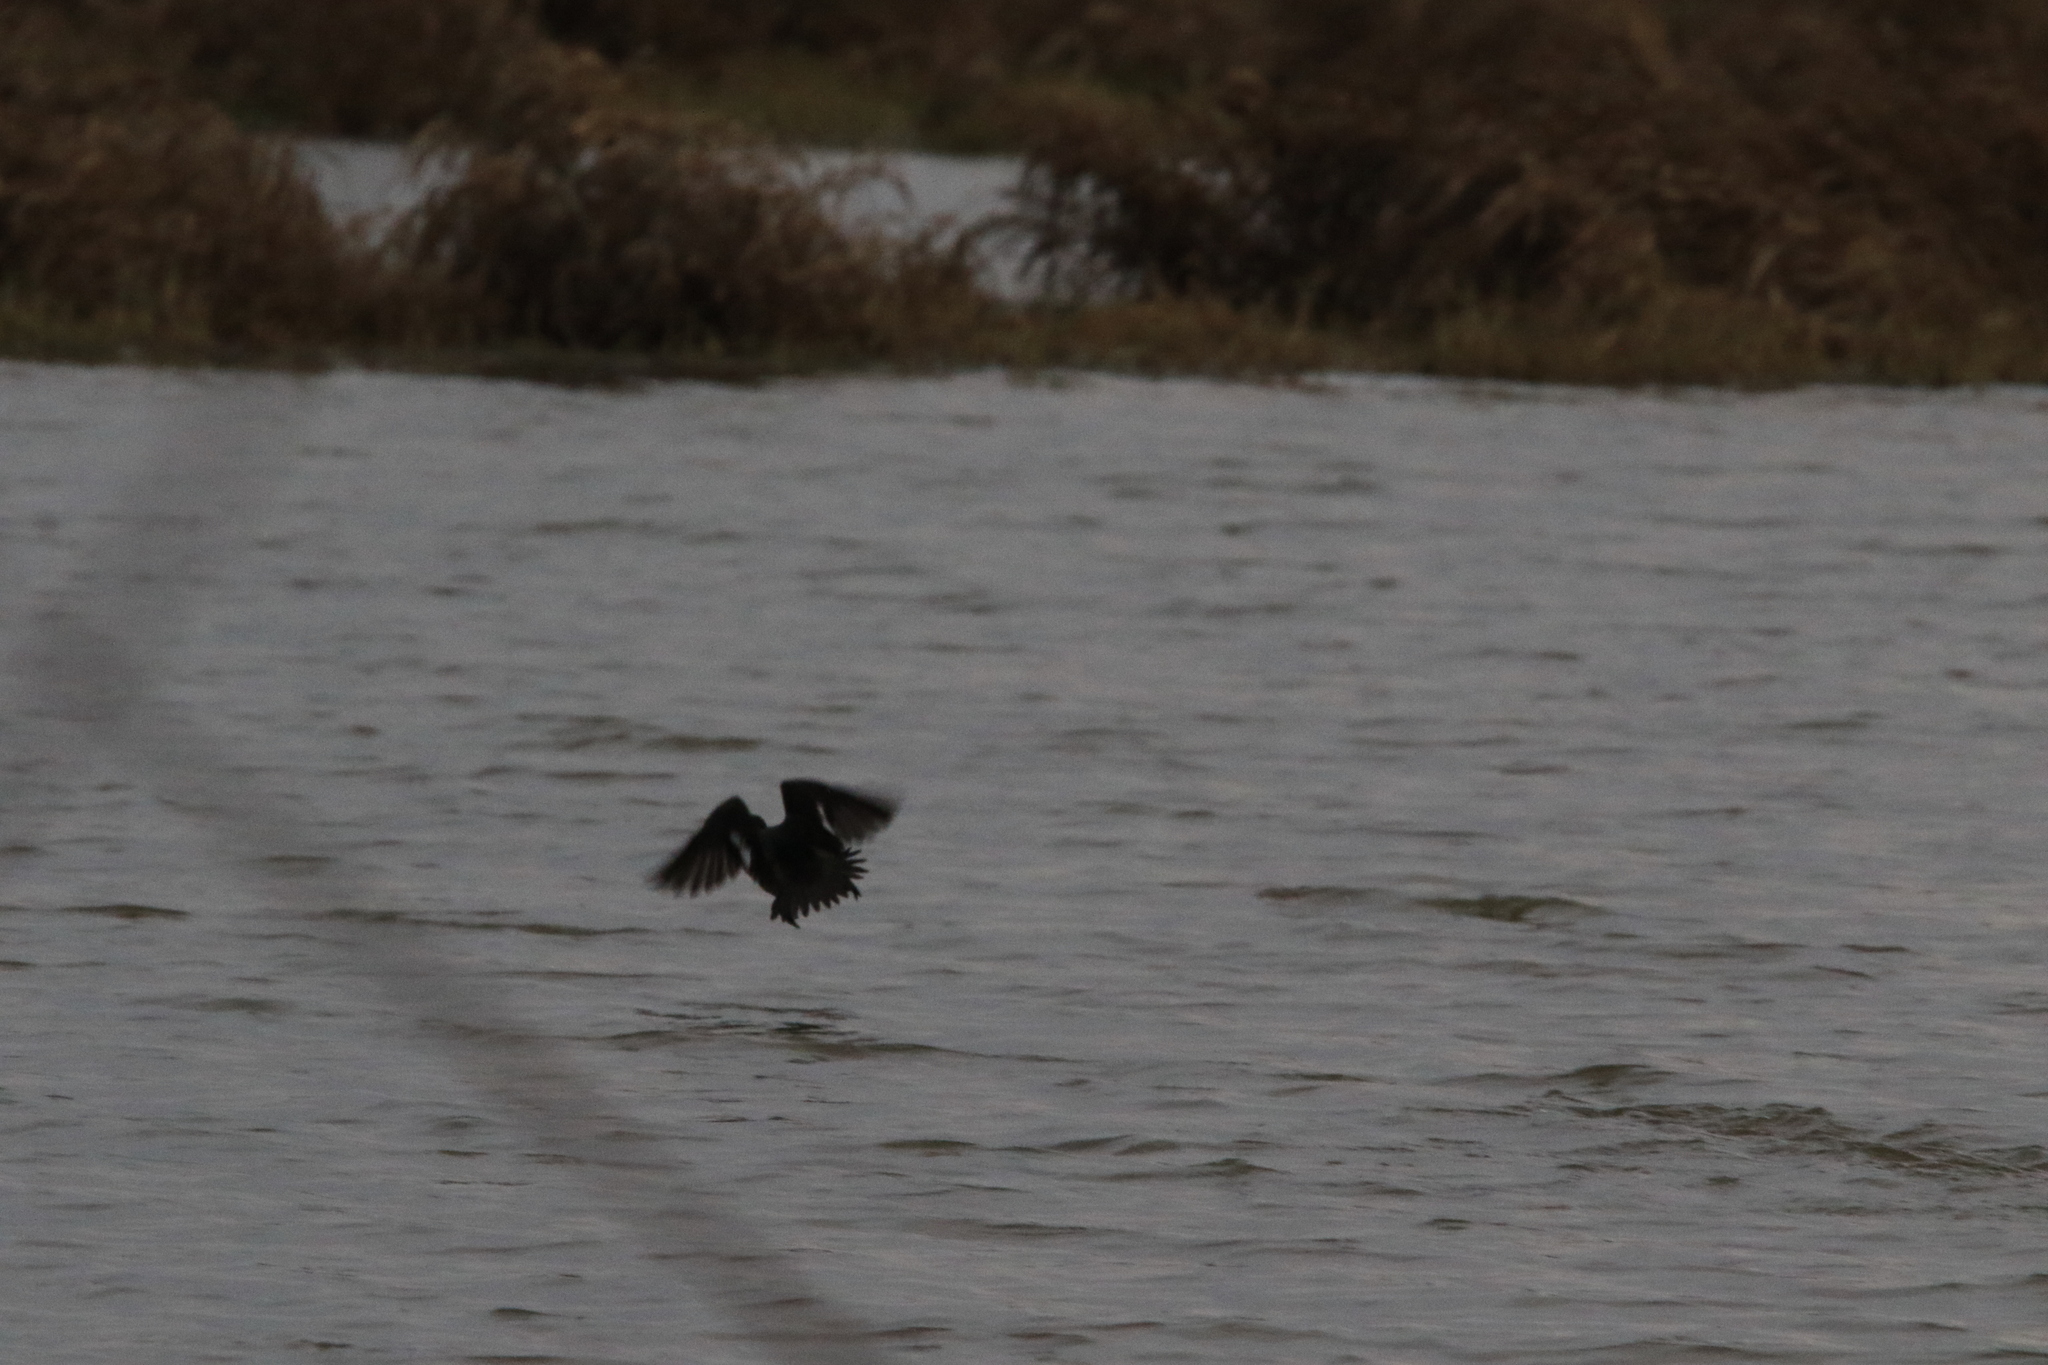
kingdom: Animalia
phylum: Chordata
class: Aves
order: Anseriformes
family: Anatidae
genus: Bucephala
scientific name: Bucephala albeola
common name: Bufflehead
